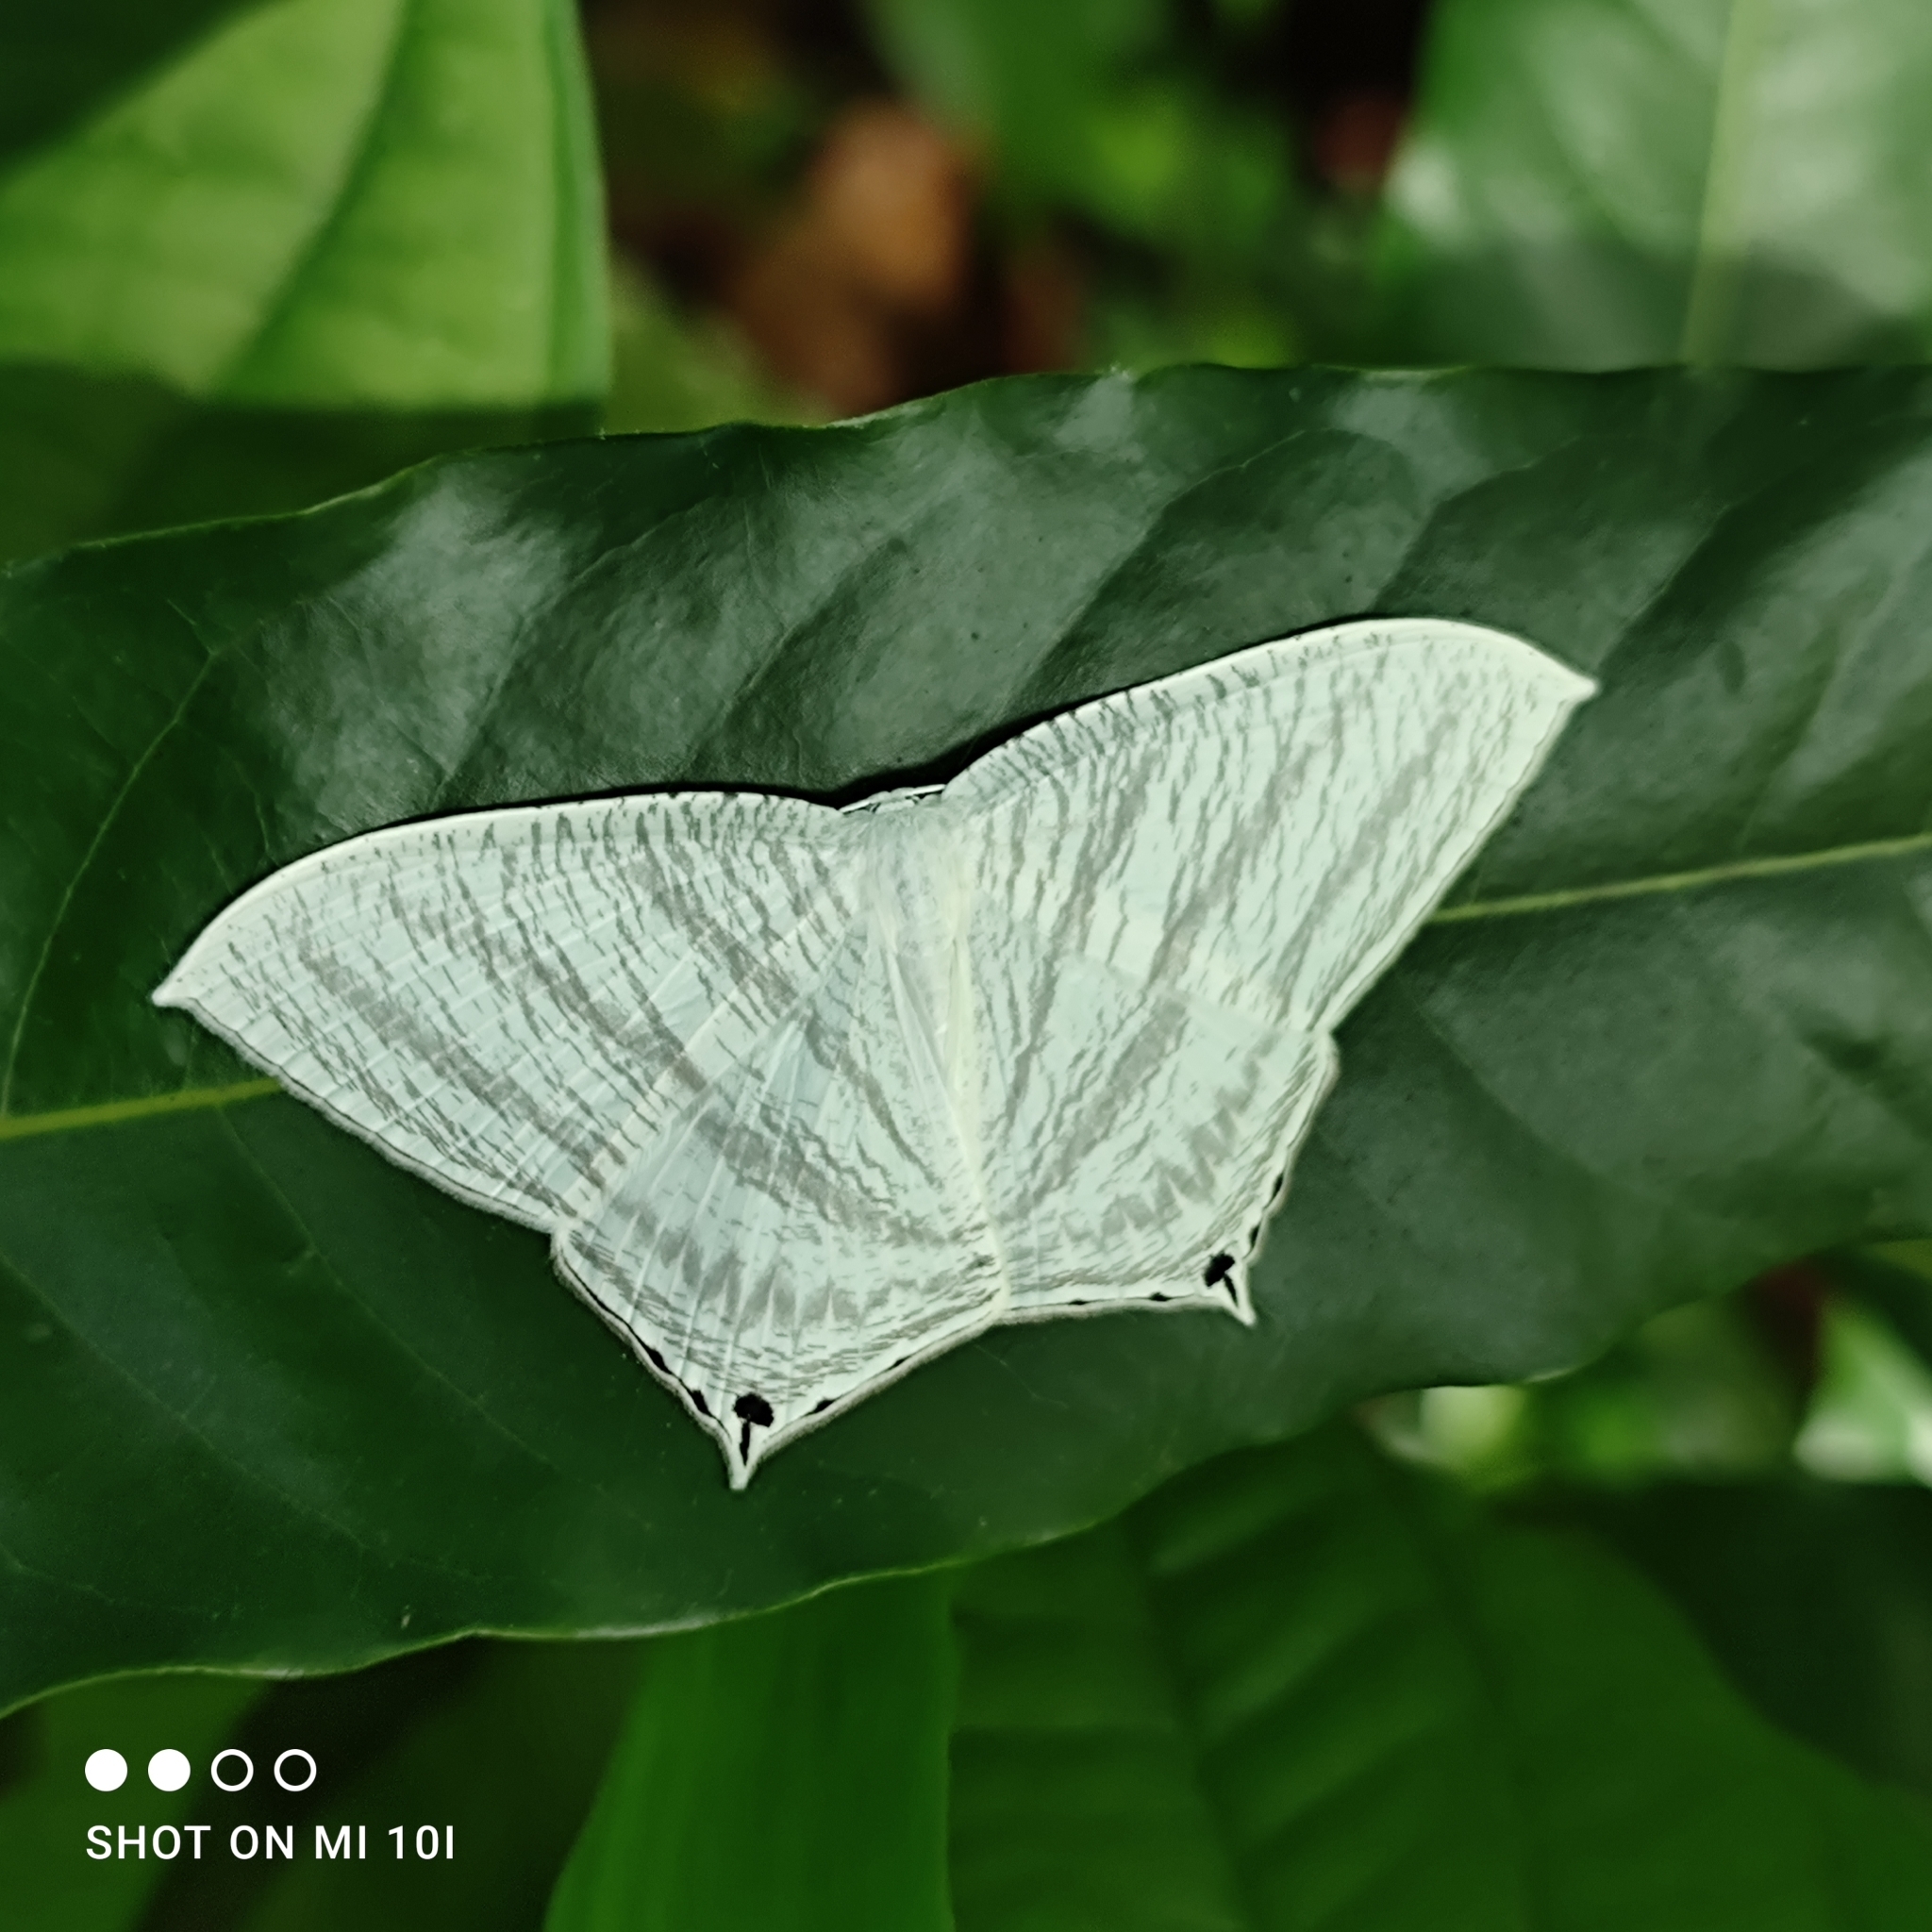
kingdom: Animalia
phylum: Arthropoda
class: Insecta
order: Lepidoptera
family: Uraniidae
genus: Micronia
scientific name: Micronia aculeata
